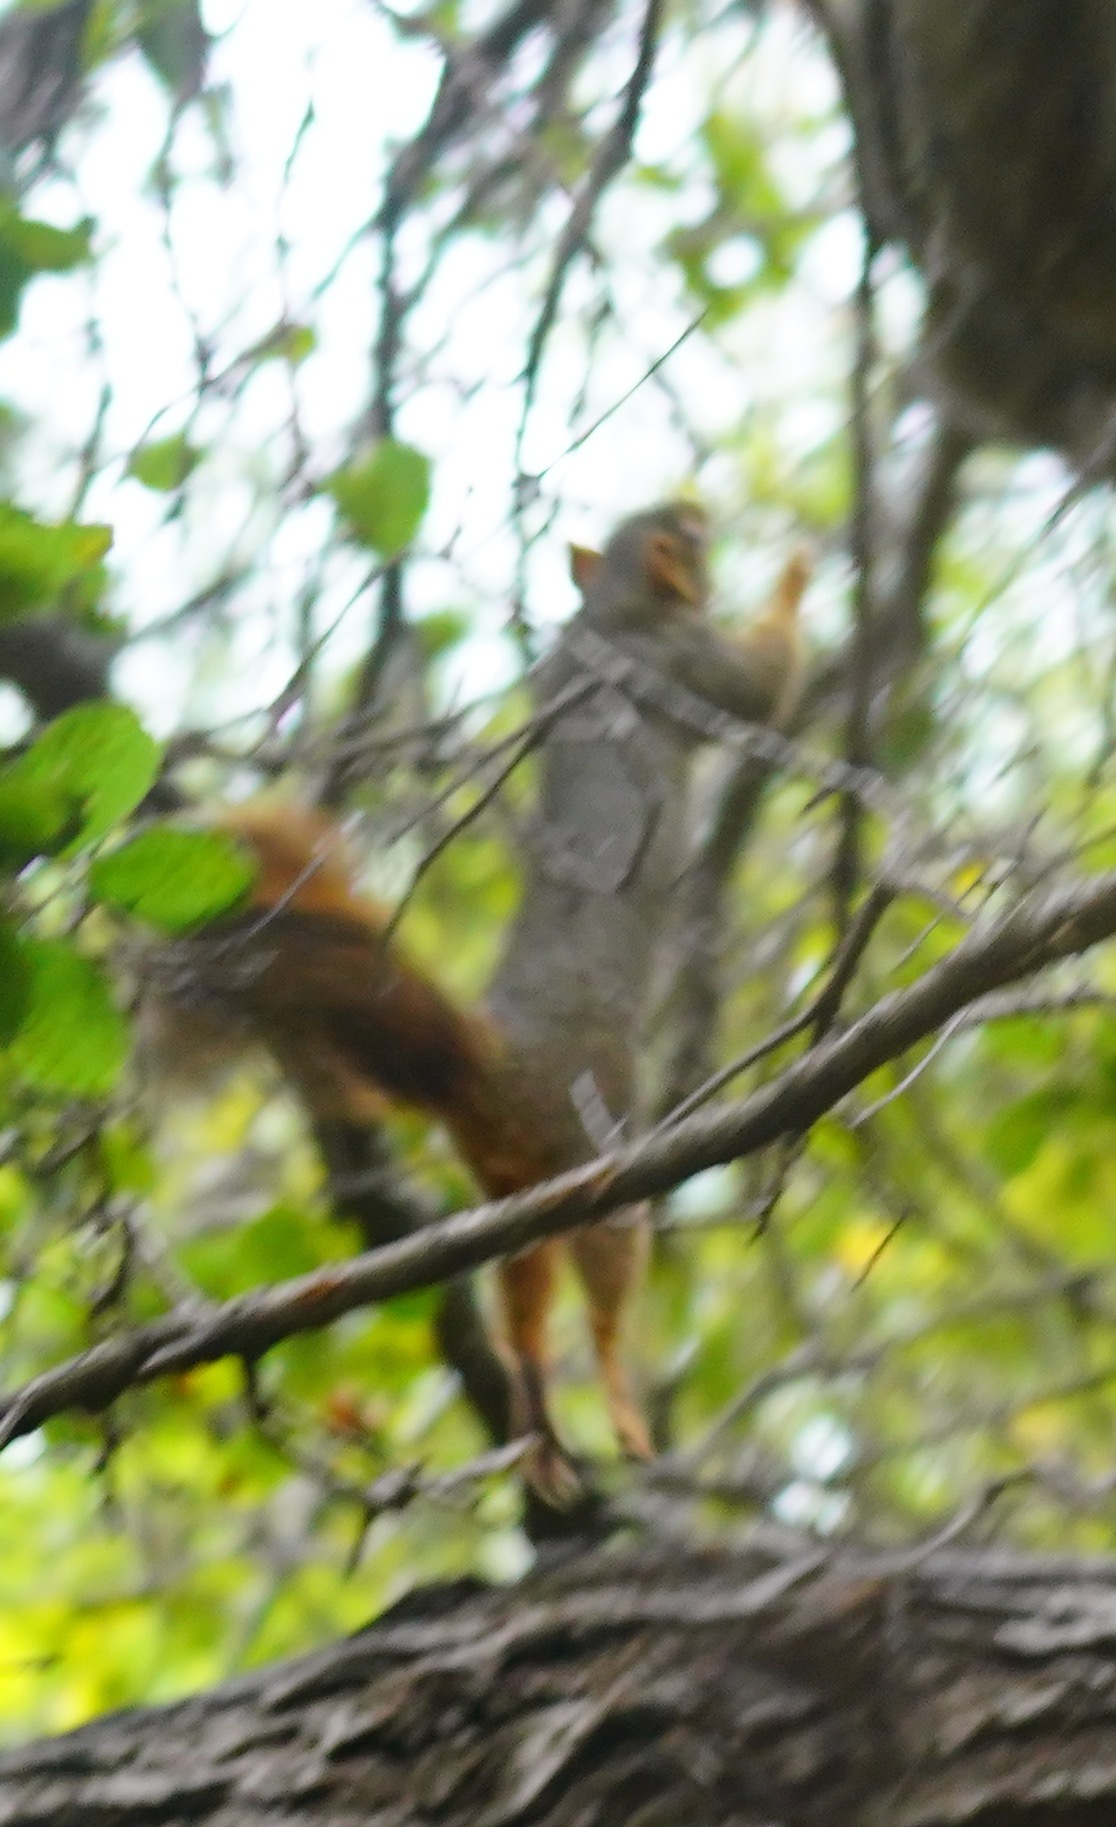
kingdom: Animalia
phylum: Chordata
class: Mammalia
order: Rodentia
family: Sciuridae
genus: Sciurus
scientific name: Sciurus niger
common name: Fox squirrel
